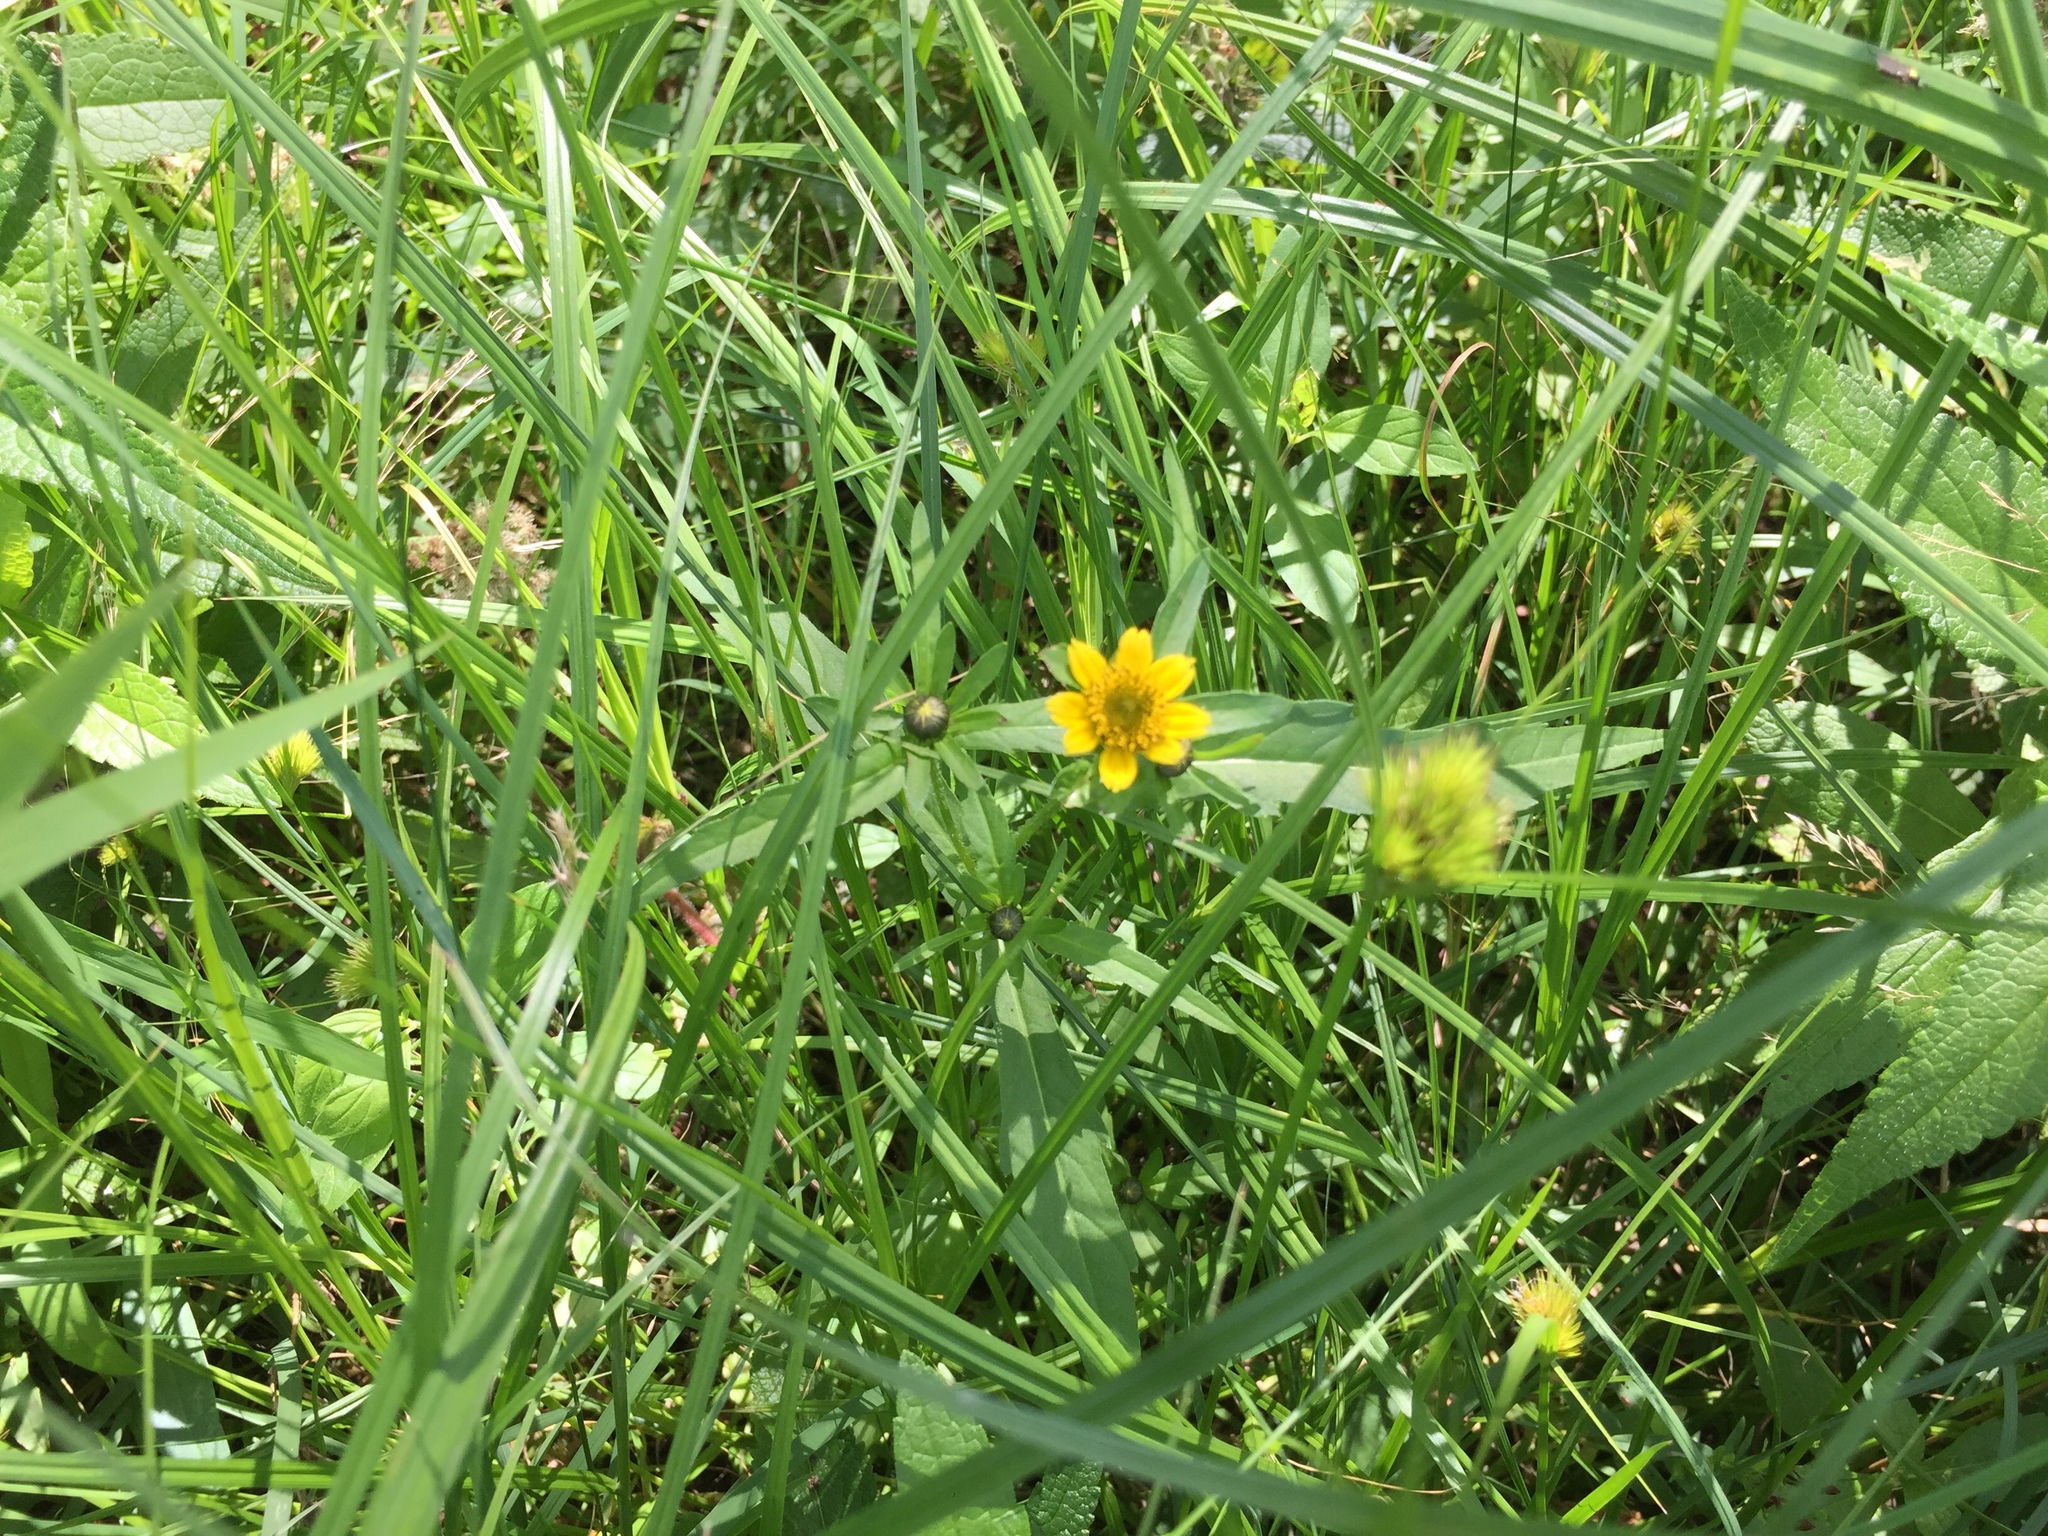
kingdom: Plantae
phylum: Tracheophyta
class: Magnoliopsida
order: Asterales
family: Asteraceae
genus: Bidens
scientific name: Bidens cernua
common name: Nodding bur-marigold
